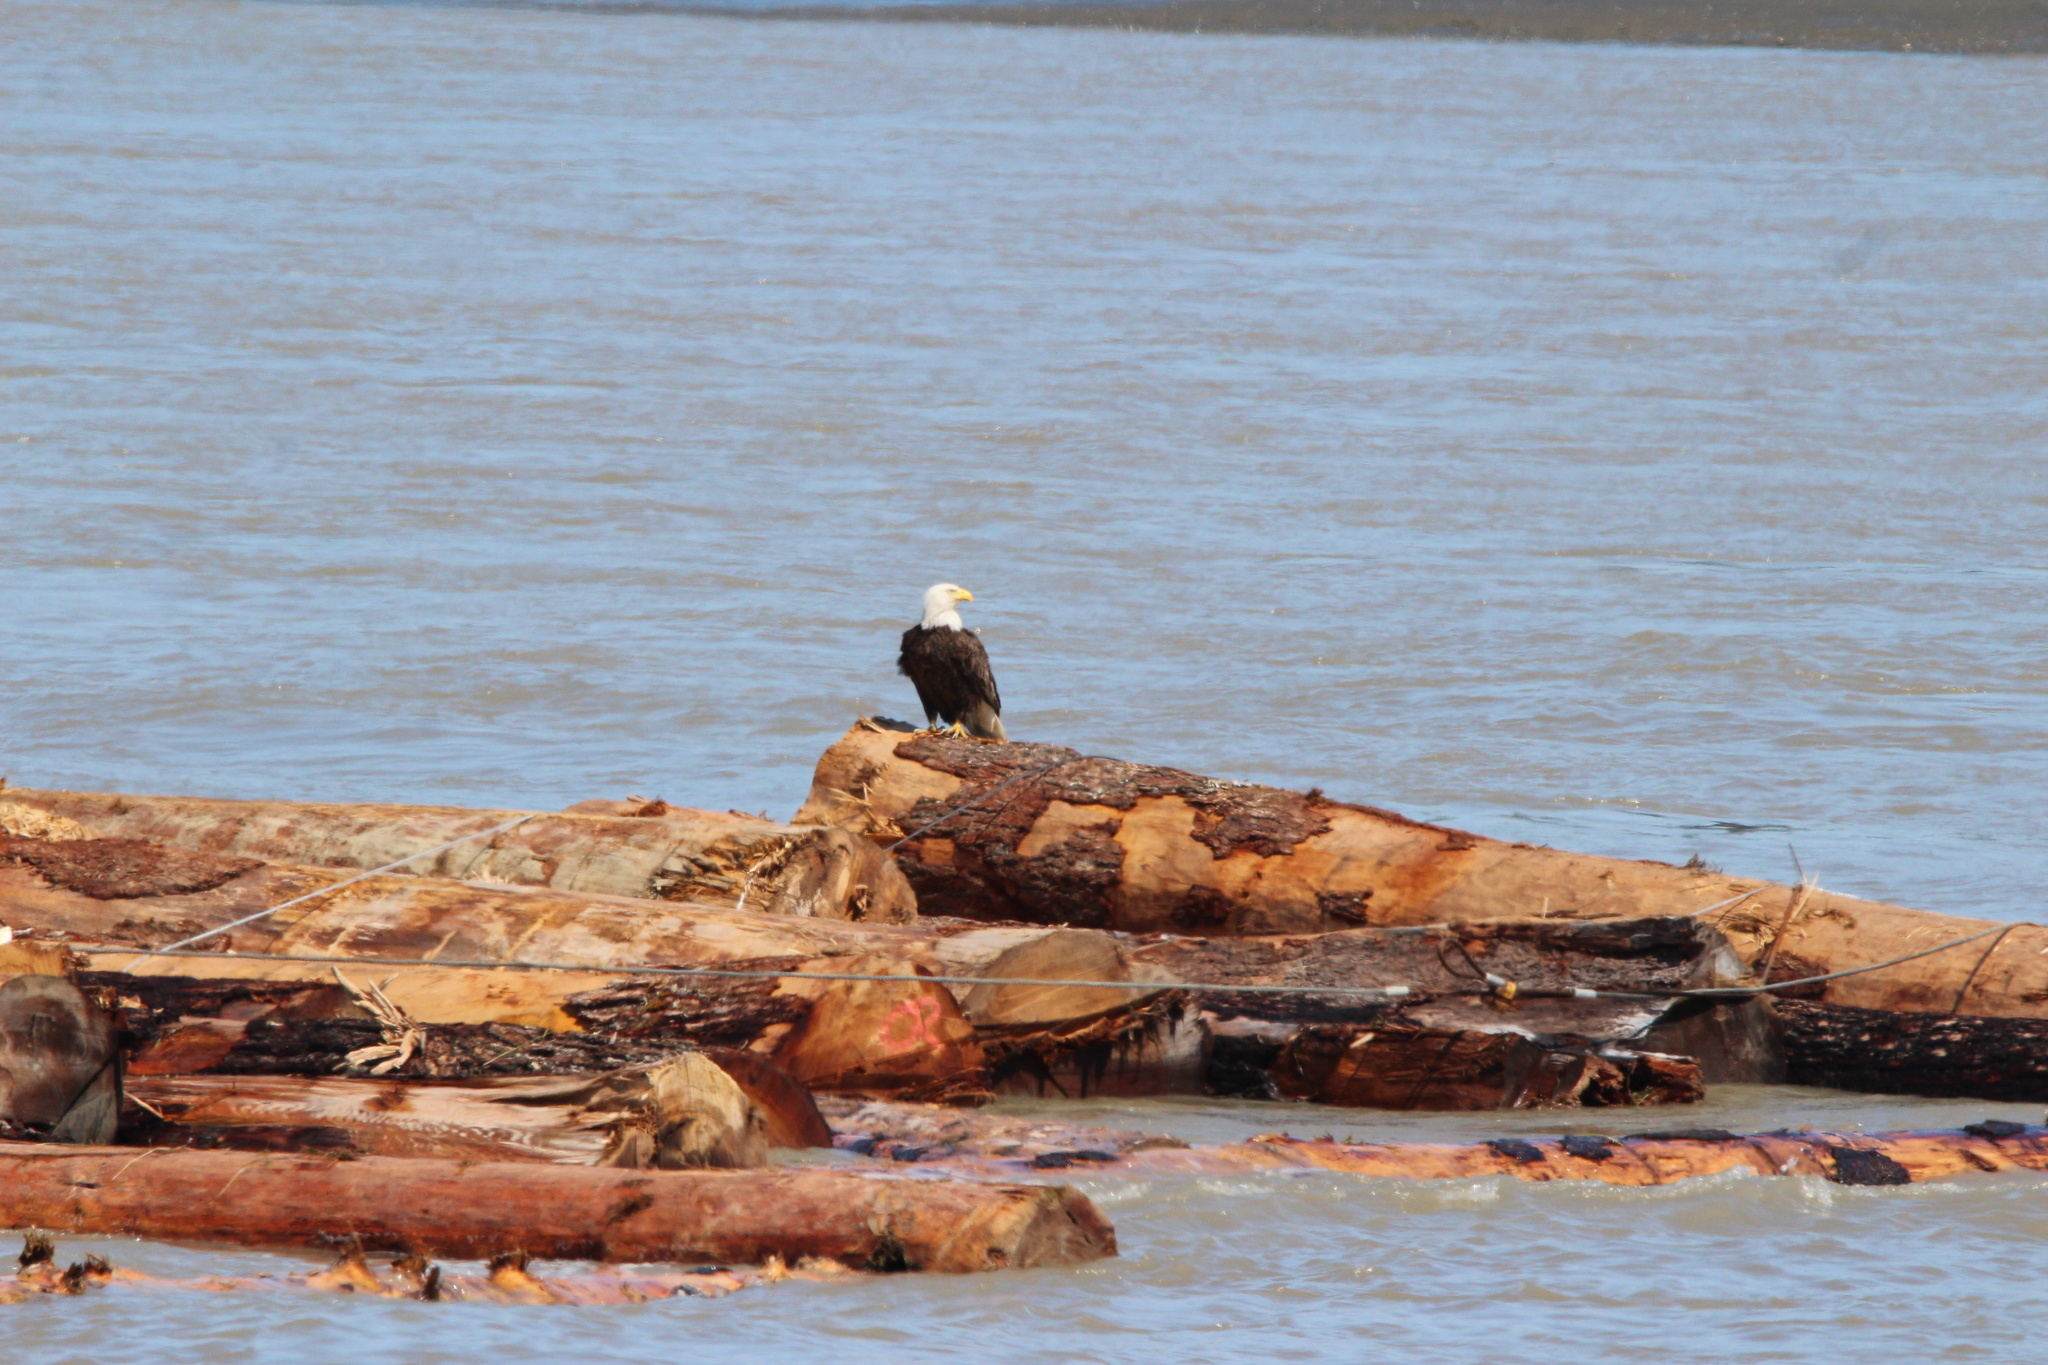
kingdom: Animalia
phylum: Chordata
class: Aves
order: Accipitriformes
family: Accipitridae
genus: Haliaeetus
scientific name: Haliaeetus leucocephalus
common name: Bald eagle
